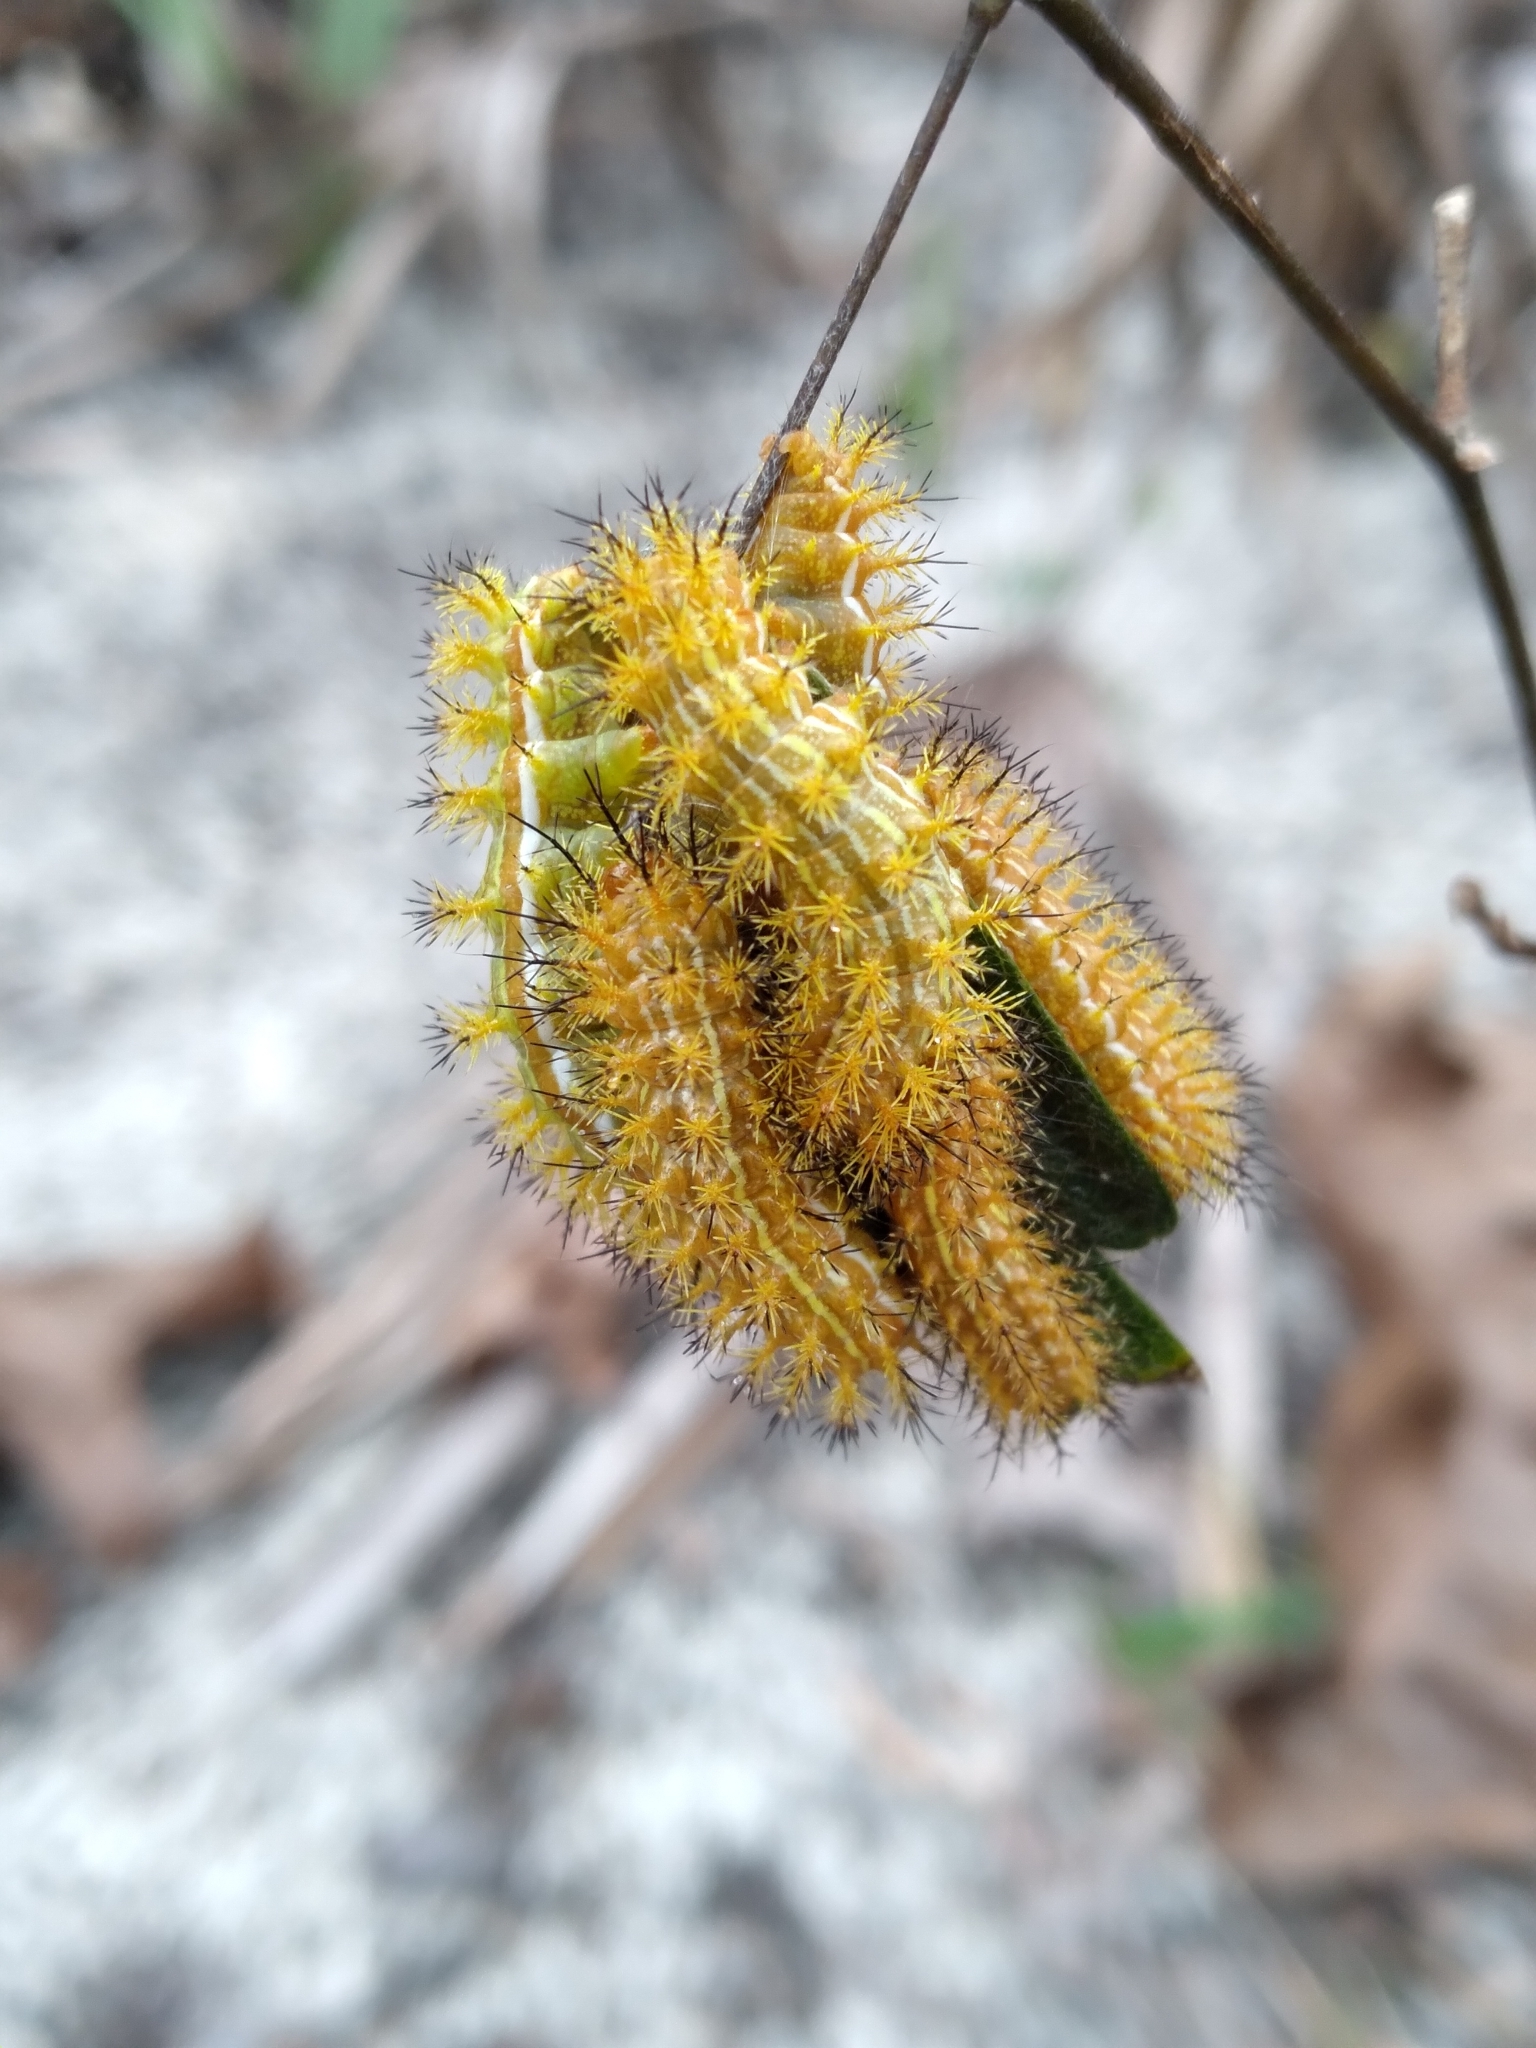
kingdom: Animalia
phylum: Arthropoda
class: Insecta
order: Lepidoptera
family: Saturniidae
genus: Automeris
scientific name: Automeris io
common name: Io moth
